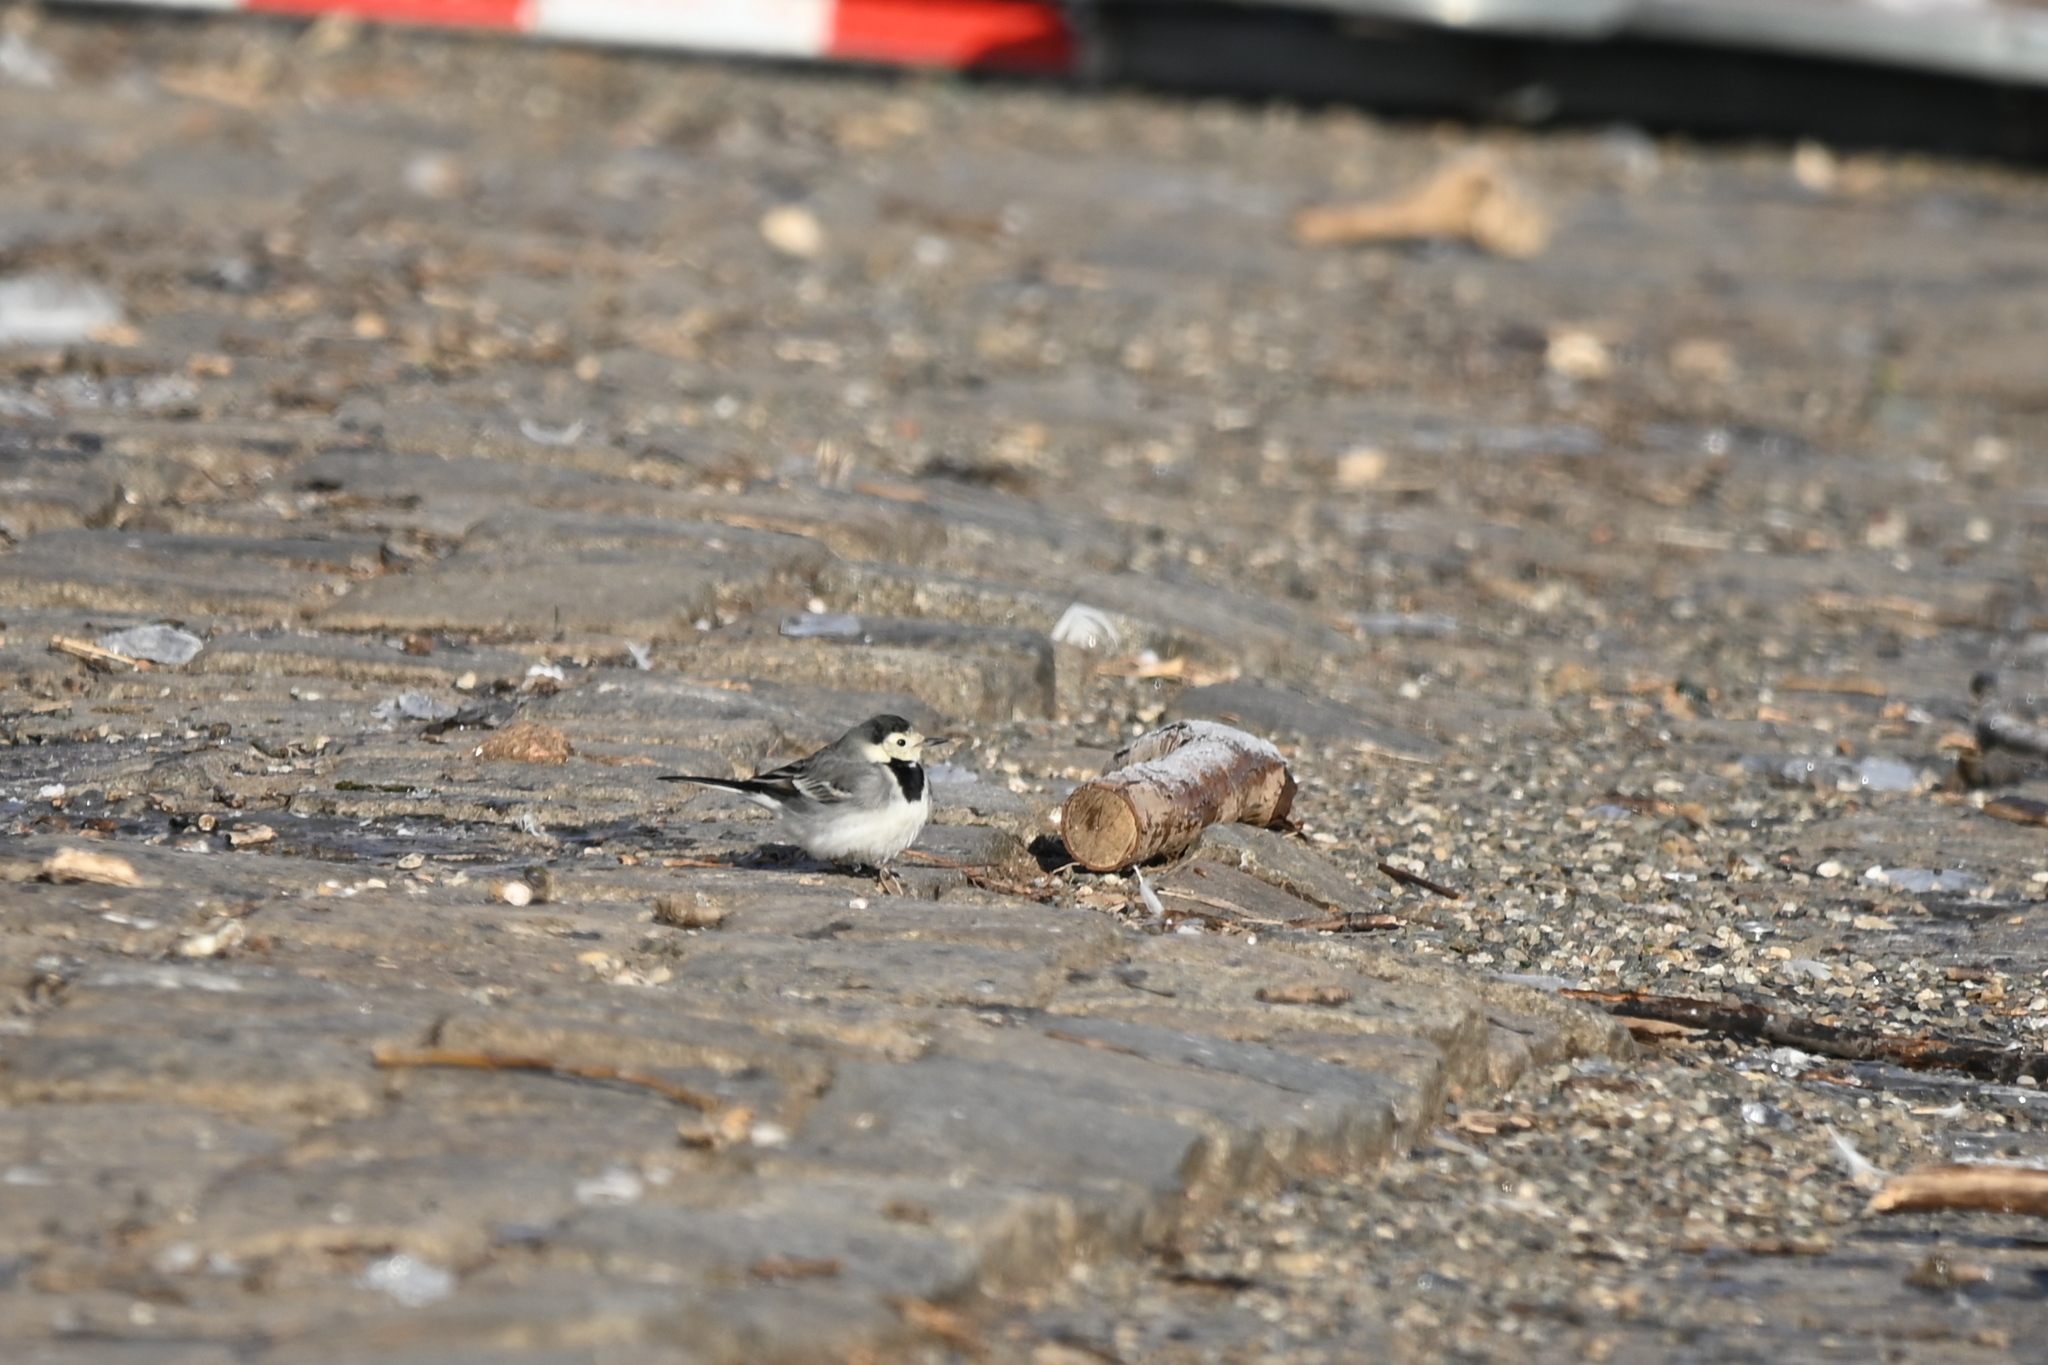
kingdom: Animalia
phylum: Chordata
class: Aves
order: Passeriformes
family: Motacillidae
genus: Motacilla
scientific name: Motacilla alba
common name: White wagtail
